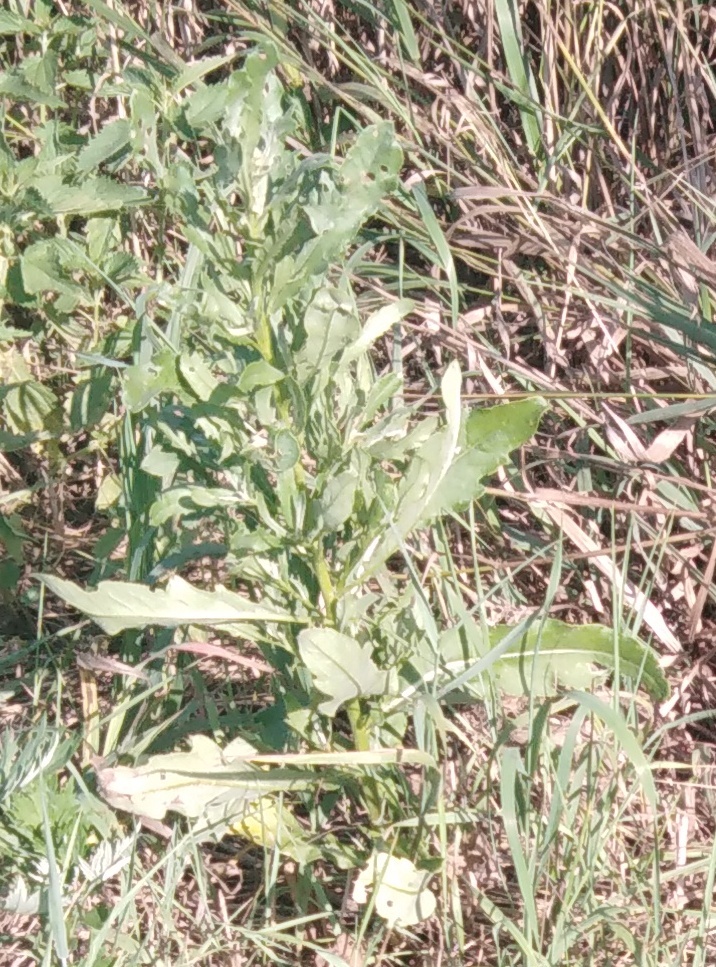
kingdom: Plantae
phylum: Tracheophyta
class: Magnoliopsida
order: Asterales
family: Asteraceae
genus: Cirsium
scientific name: Cirsium arvense
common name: Creeping thistle
